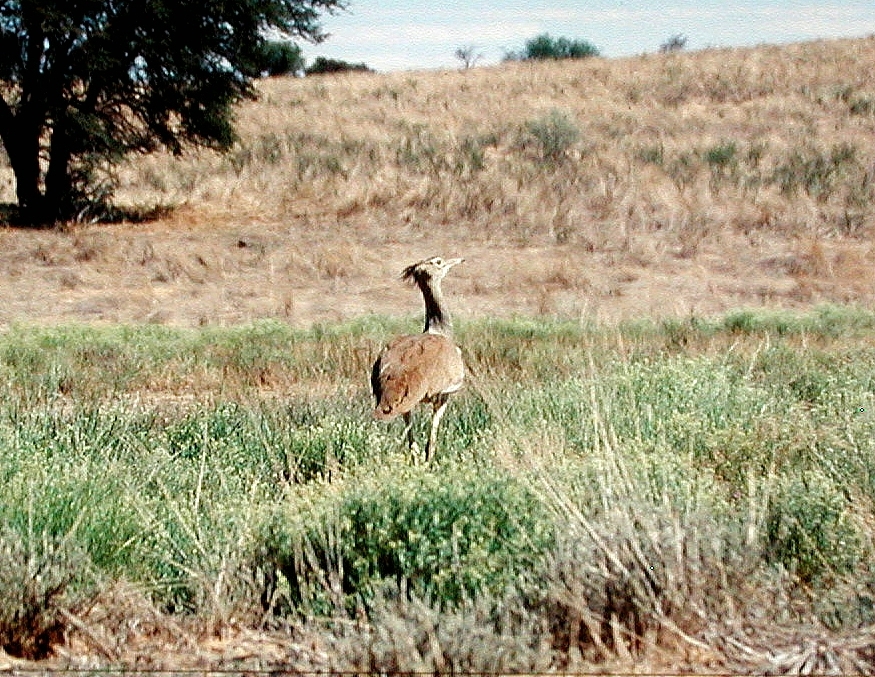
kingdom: Animalia
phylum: Chordata
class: Aves
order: Otidiformes
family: Otididae
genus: Ardeotis
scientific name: Ardeotis kori
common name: Kori bustard
